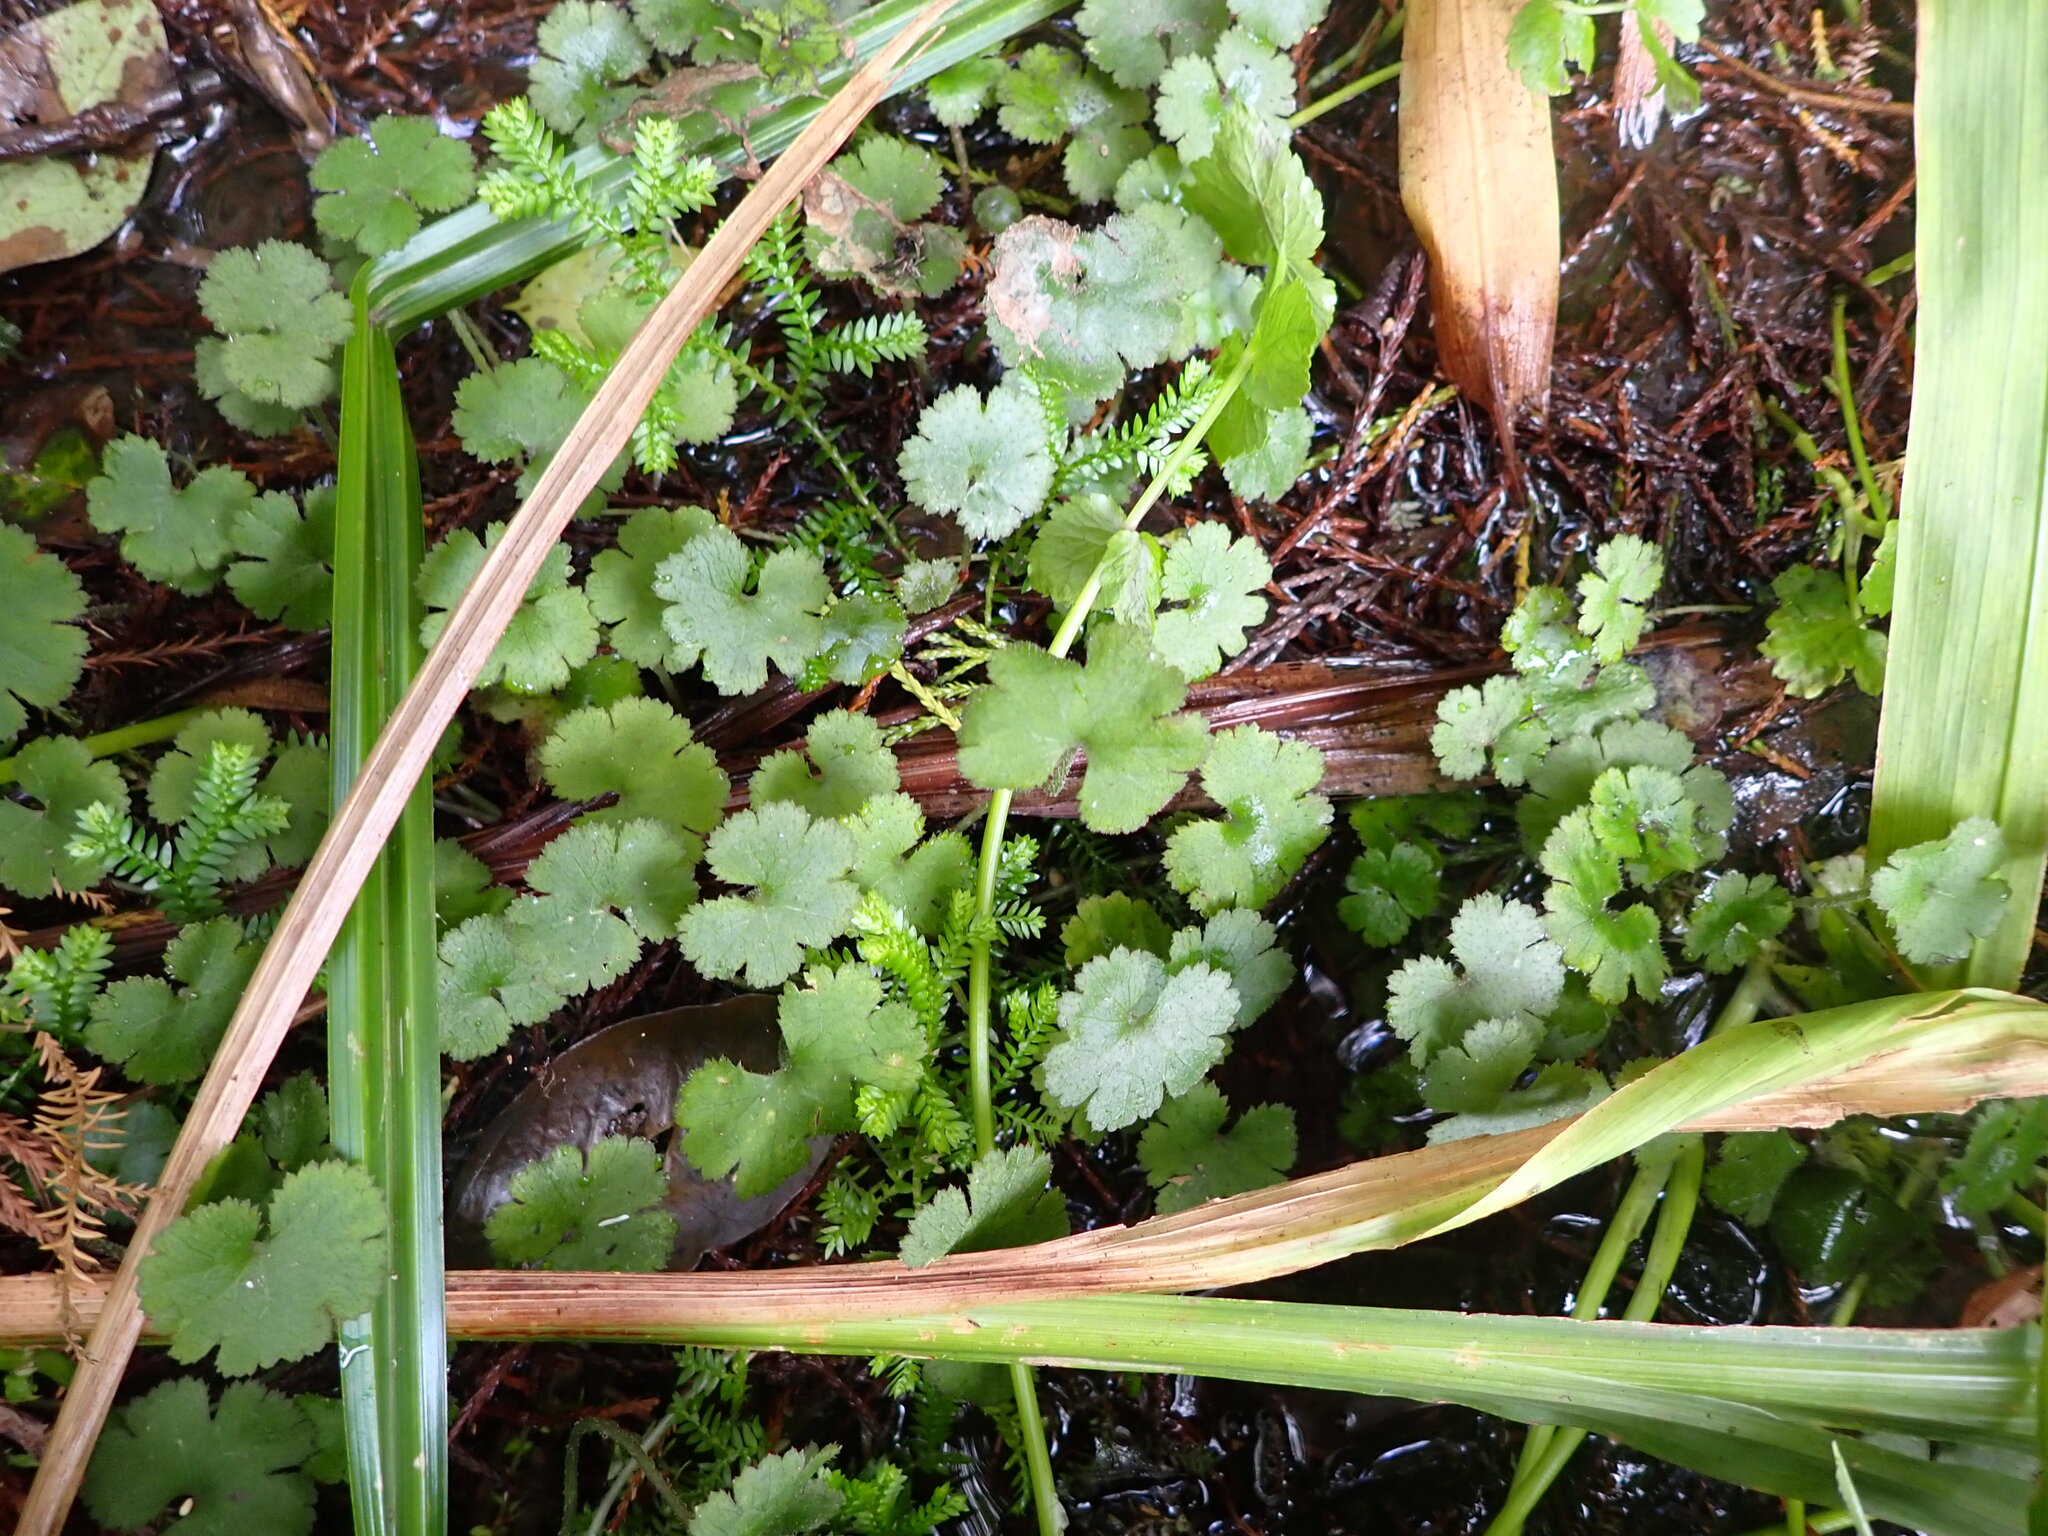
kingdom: Plantae
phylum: Tracheophyta
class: Magnoliopsida
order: Apiales
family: Araliaceae
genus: Hydrocotyle
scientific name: Hydrocotyle elongata
